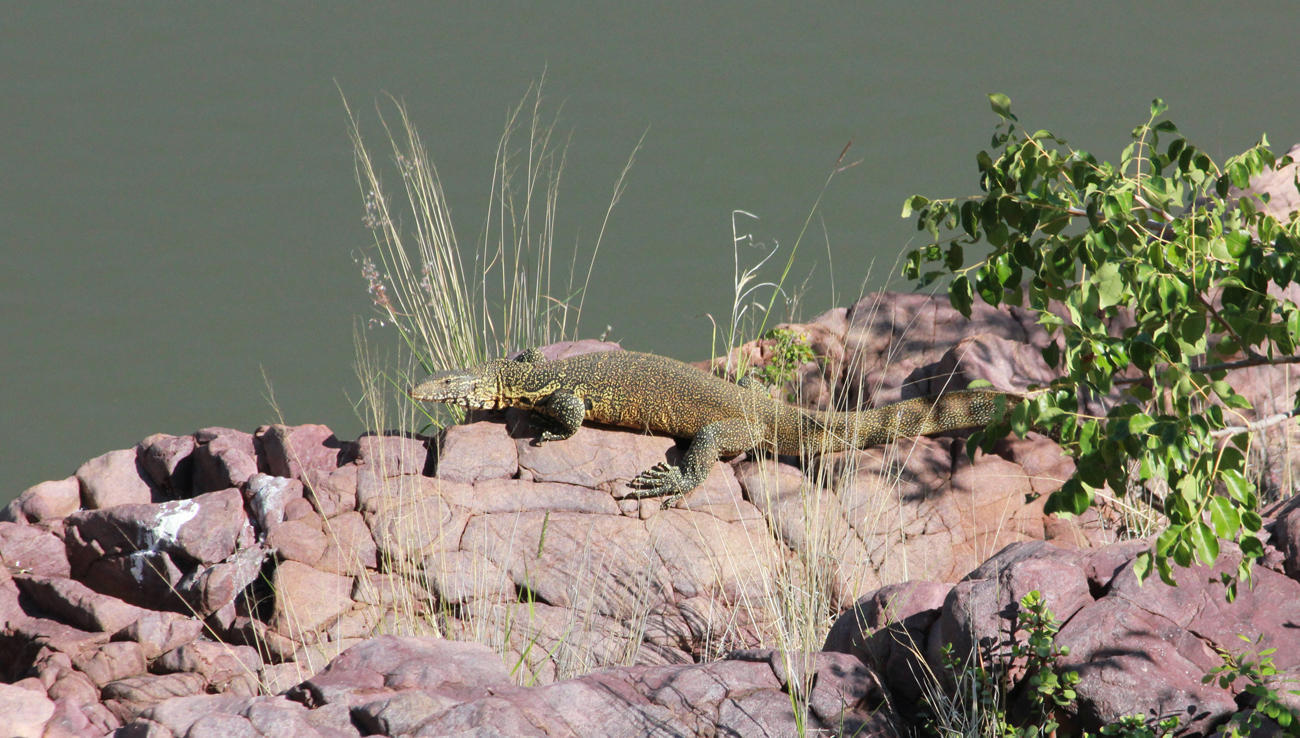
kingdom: Animalia
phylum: Chordata
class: Squamata
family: Varanidae
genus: Varanus
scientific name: Varanus niloticus
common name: Nile monitor
